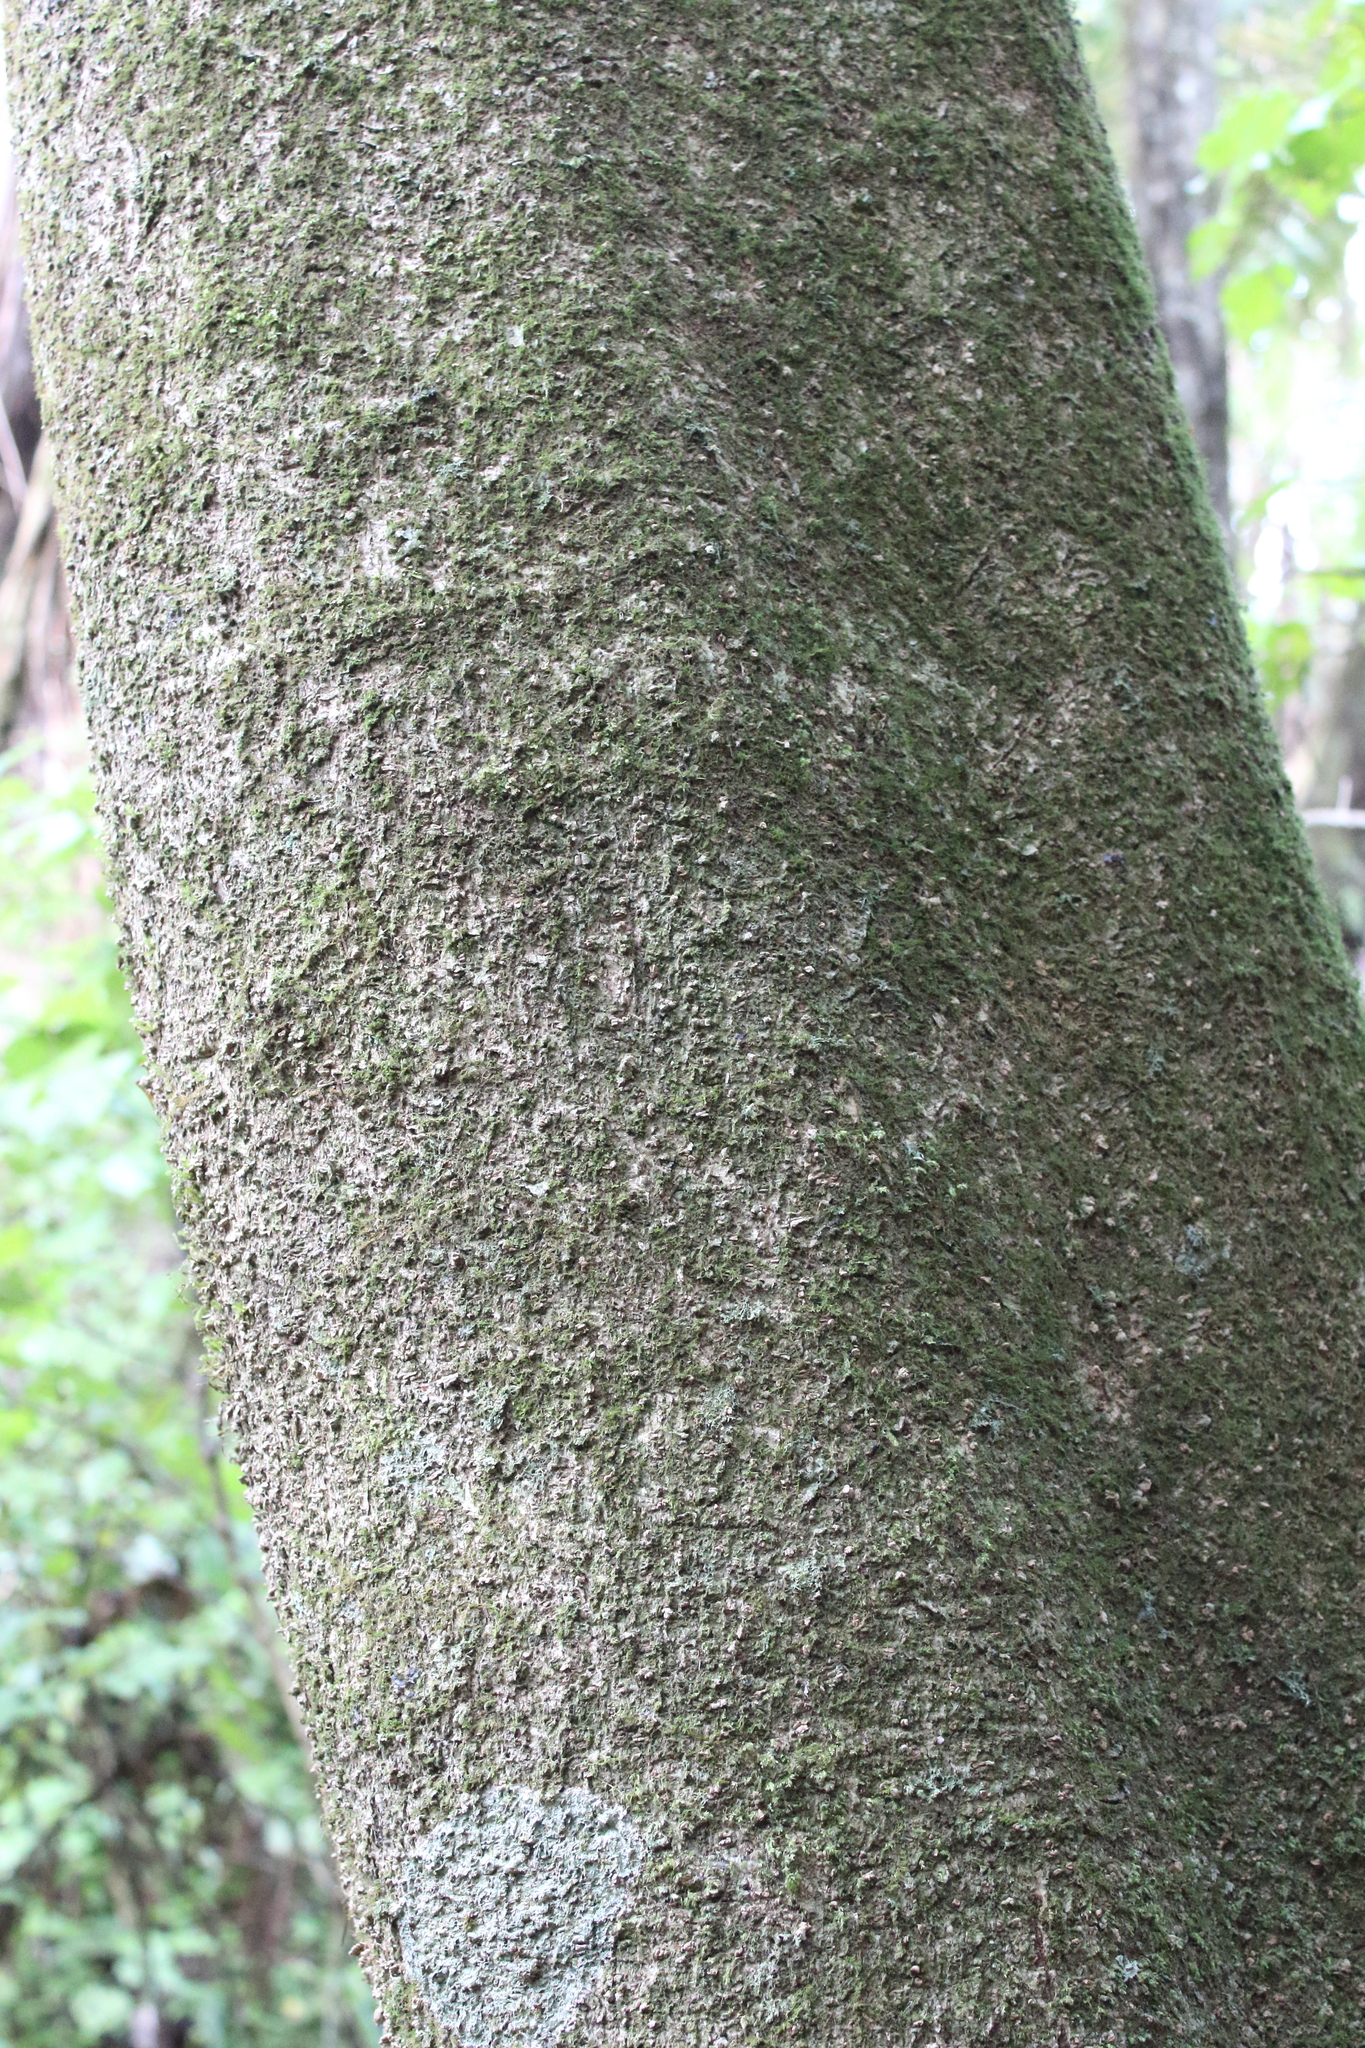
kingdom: Plantae
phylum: Tracheophyta
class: Magnoliopsida
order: Laurales
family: Atherospermataceae
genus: Laurelia
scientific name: Laurelia novae-zelandiae
